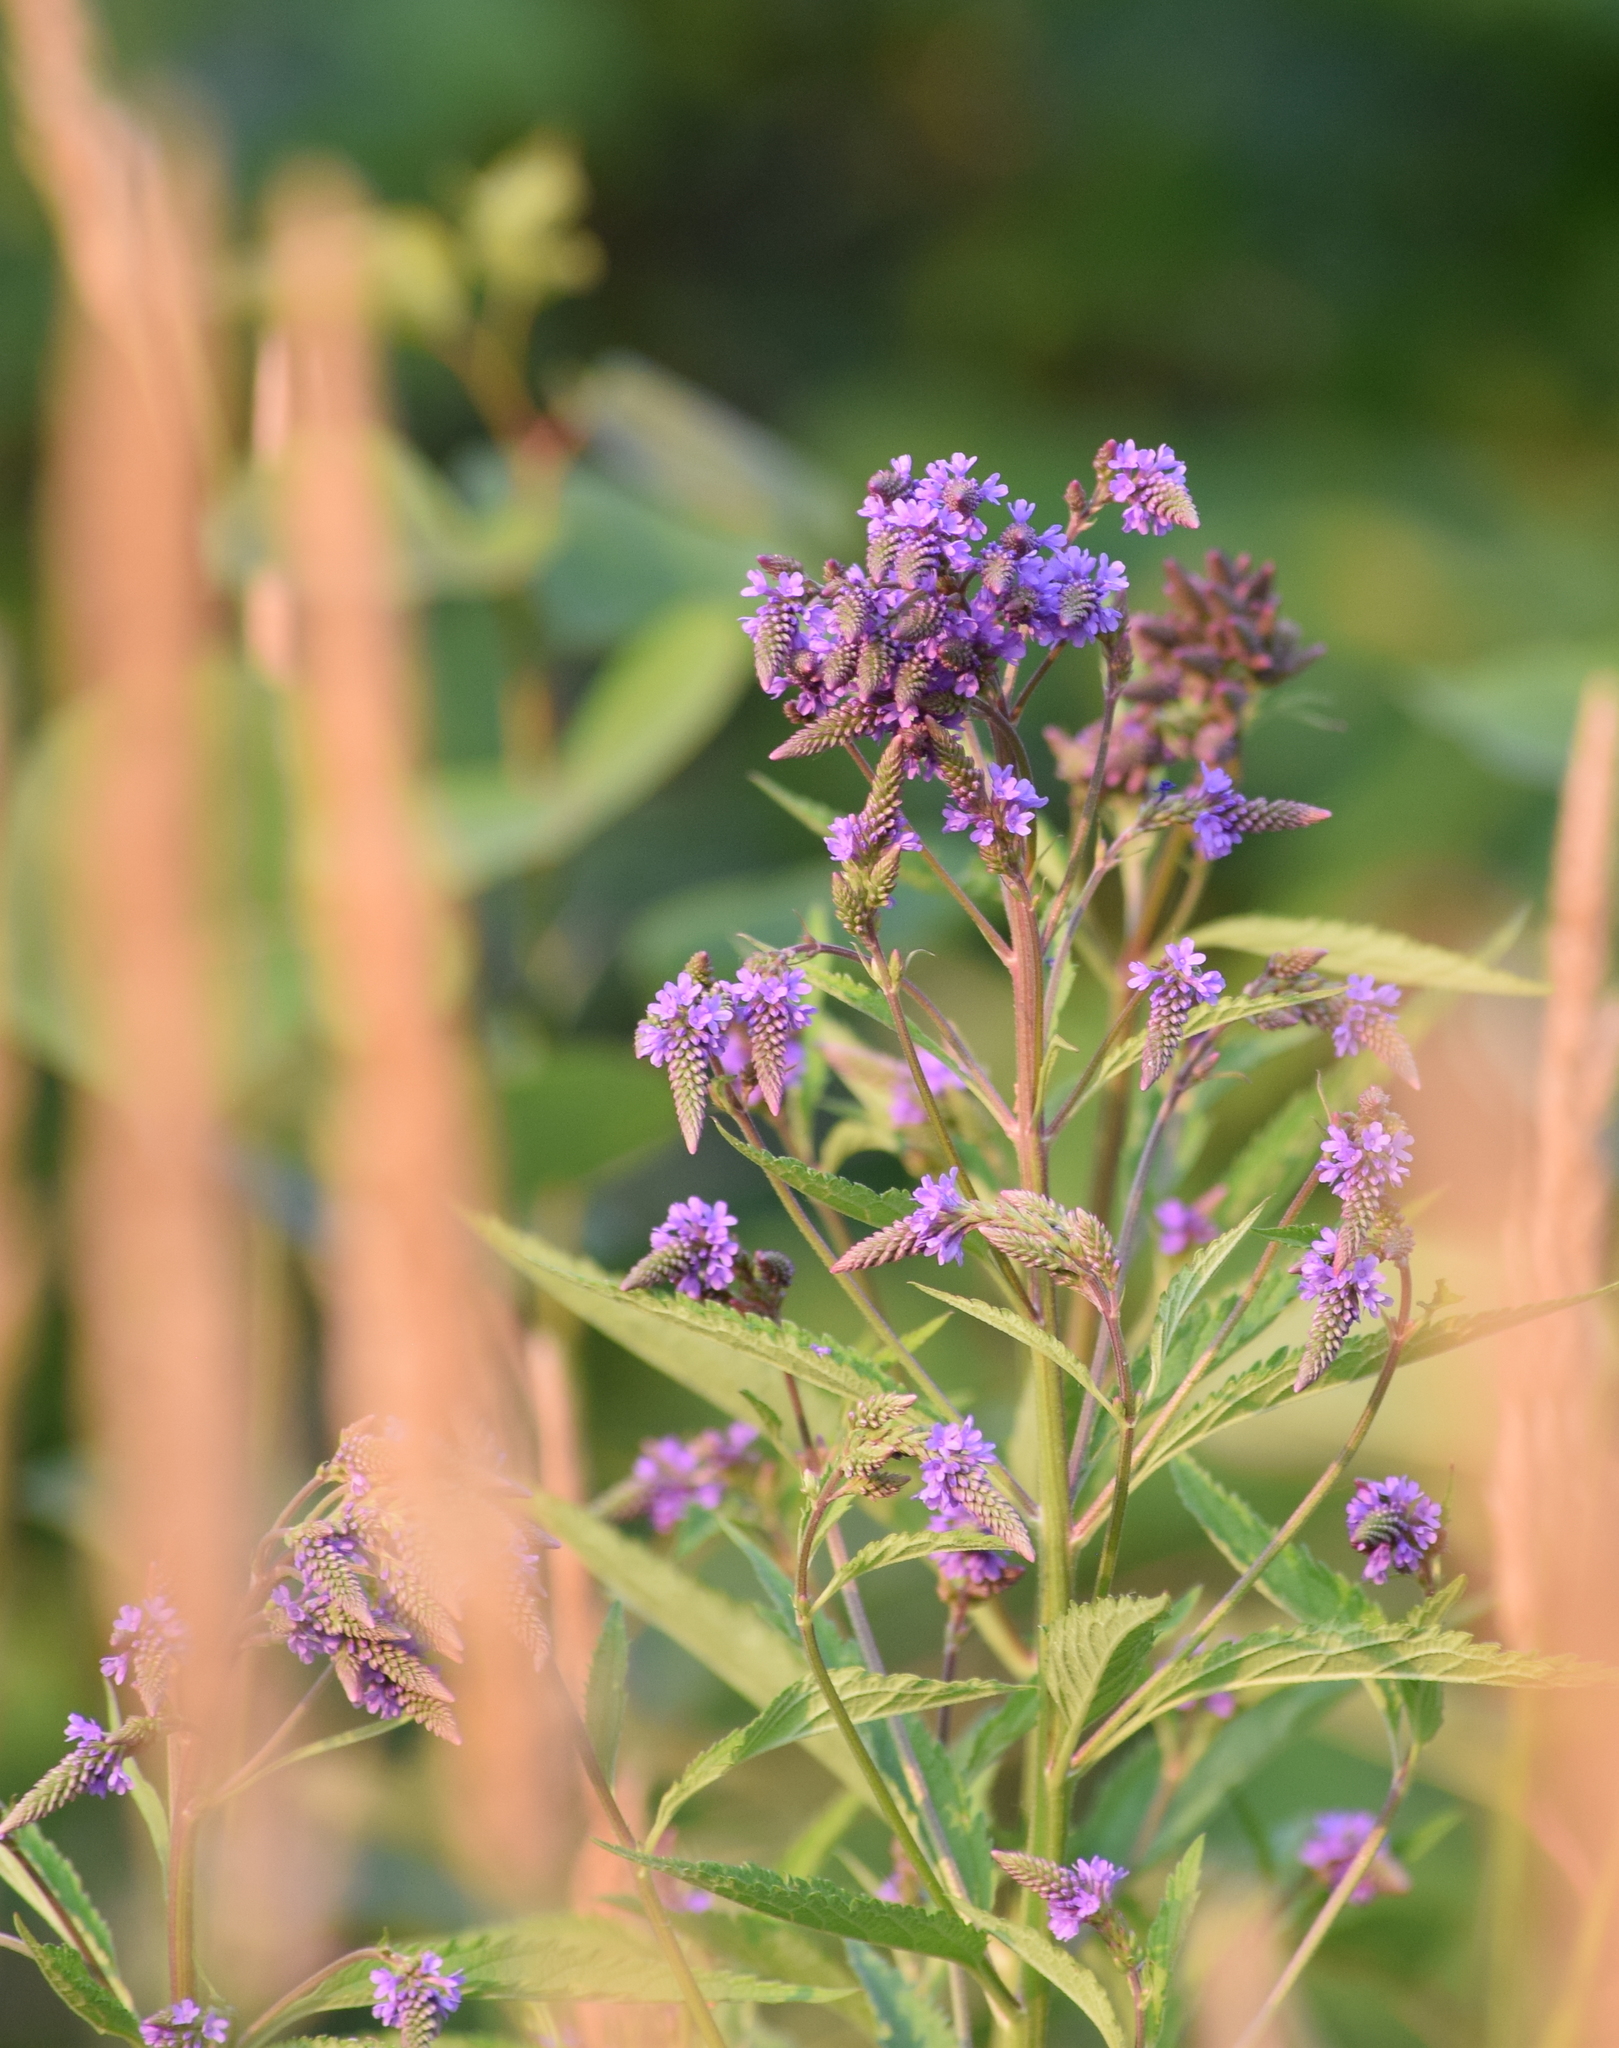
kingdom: Plantae
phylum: Tracheophyta
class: Magnoliopsida
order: Lamiales
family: Verbenaceae
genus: Verbena
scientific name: Verbena hastata
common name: American blue vervain
